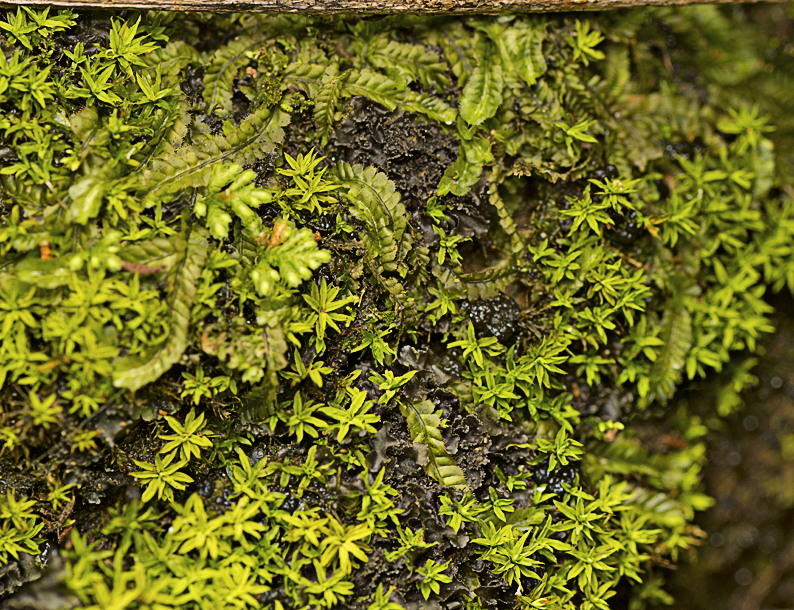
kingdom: Plantae
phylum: Marchantiophyta
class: Jungermanniopsida
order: Jungermanniales
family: Lophocoleaceae
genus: Heteroscyphus
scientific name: Heteroscyphus argutus
